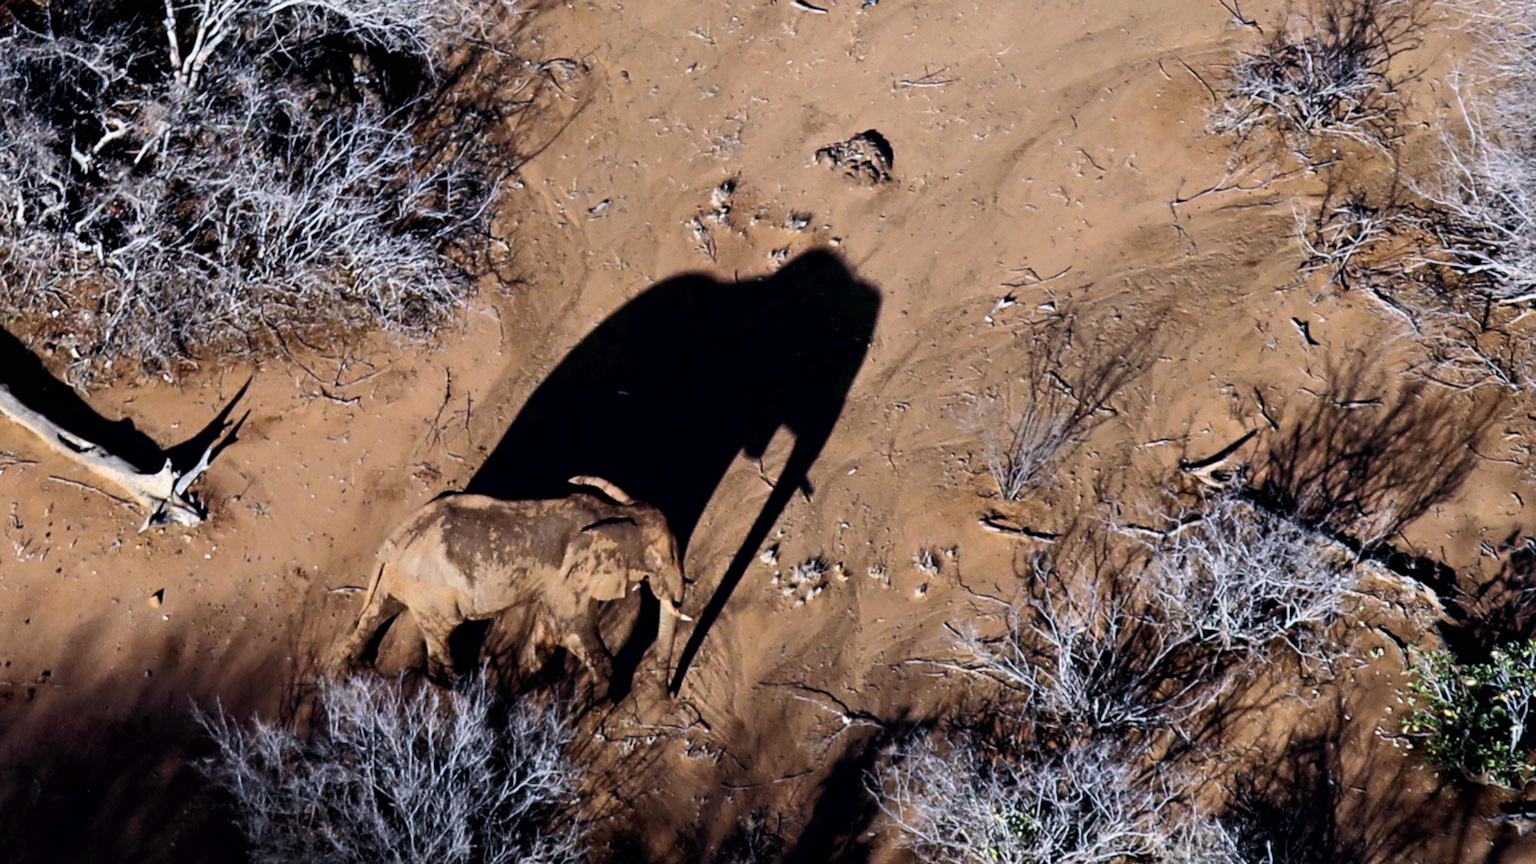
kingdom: Animalia
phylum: Chordata
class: Mammalia
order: Proboscidea
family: Elephantidae
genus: Loxodonta
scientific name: Loxodonta africana
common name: African elephant
